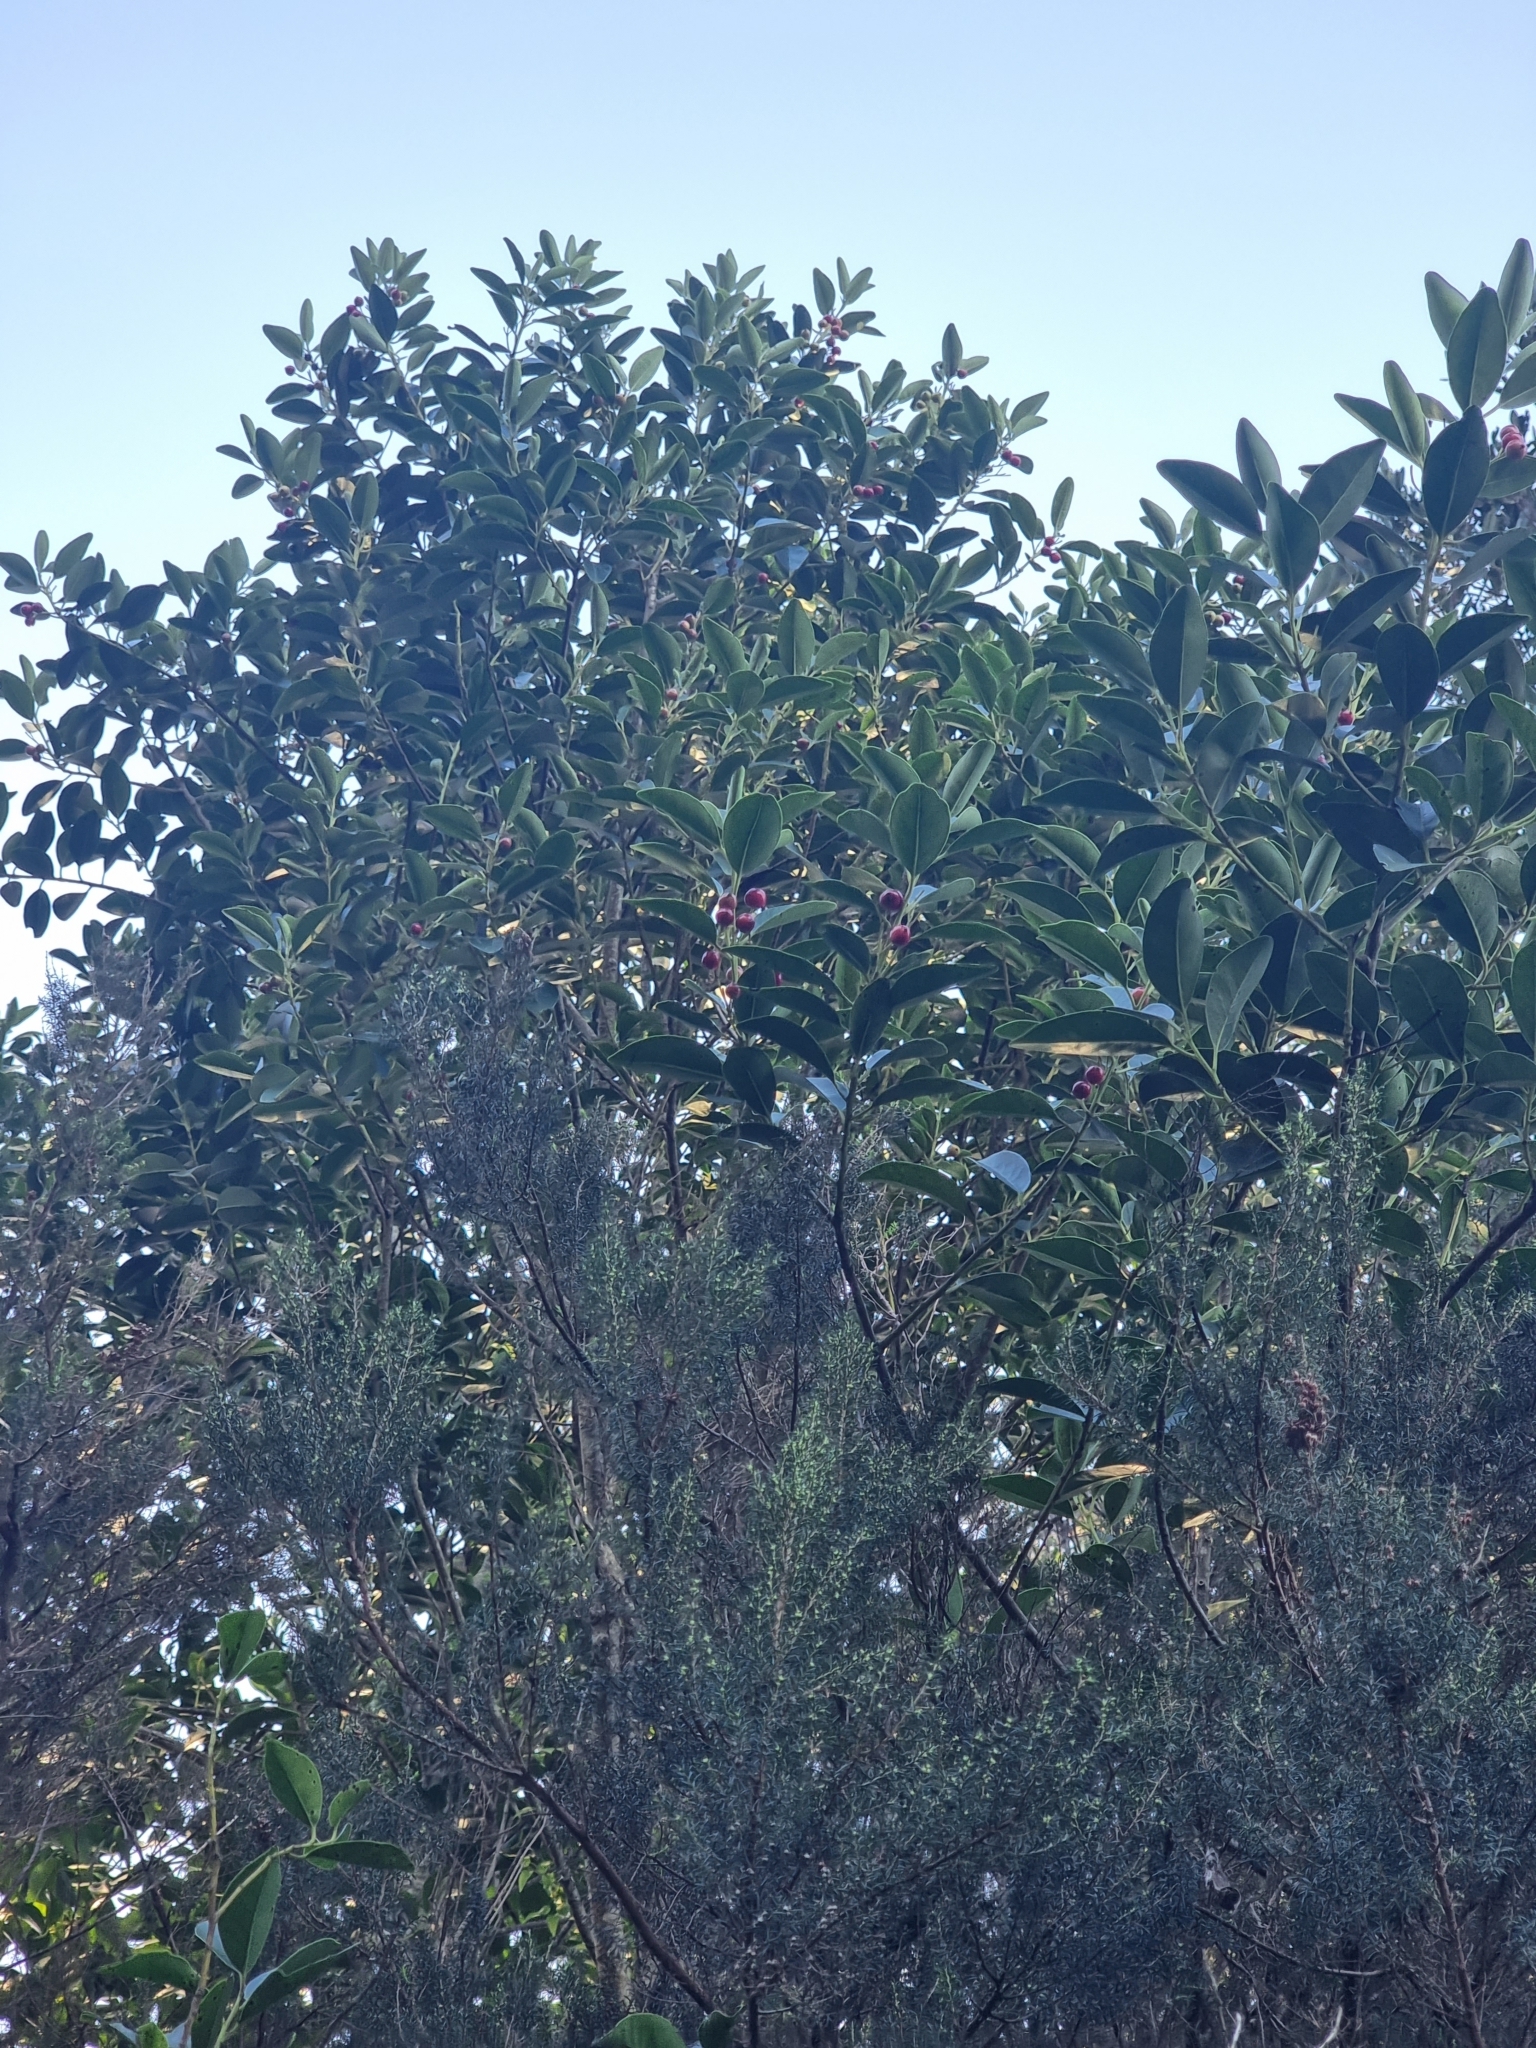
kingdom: Plantae
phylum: Tracheophyta
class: Magnoliopsida
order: Aquifoliales
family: Aquifoliaceae
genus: Ilex
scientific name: Ilex canariensis
